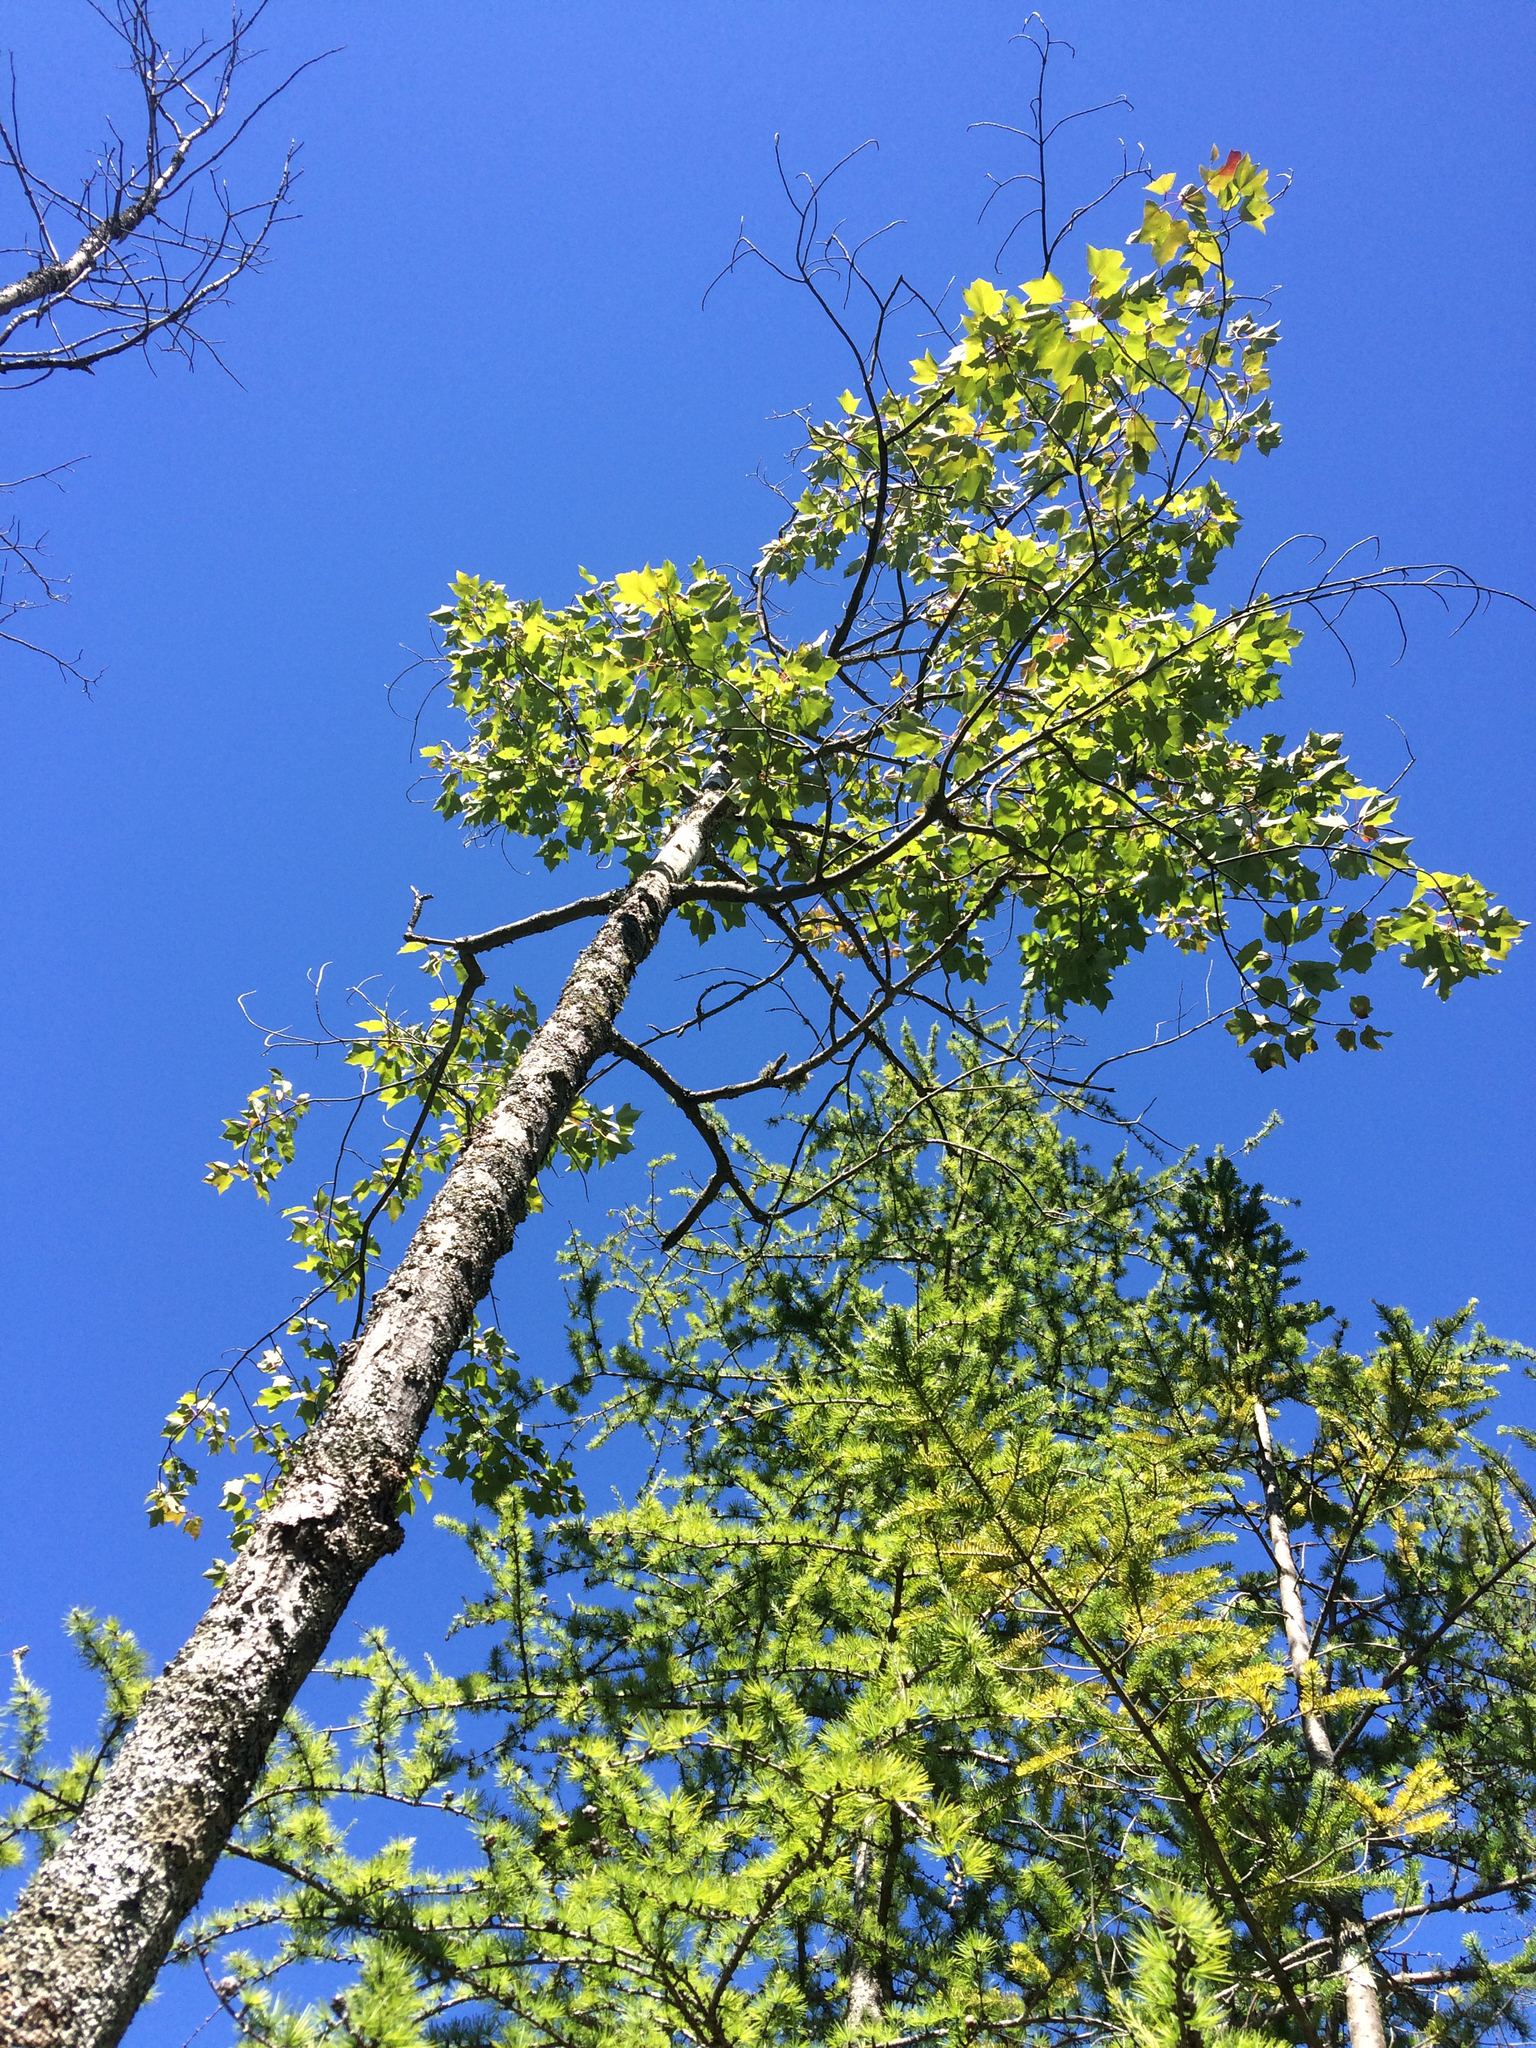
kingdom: Plantae
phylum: Tracheophyta
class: Magnoliopsida
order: Sapindales
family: Sapindaceae
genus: Acer
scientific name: Acer rubrum
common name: Red maple
